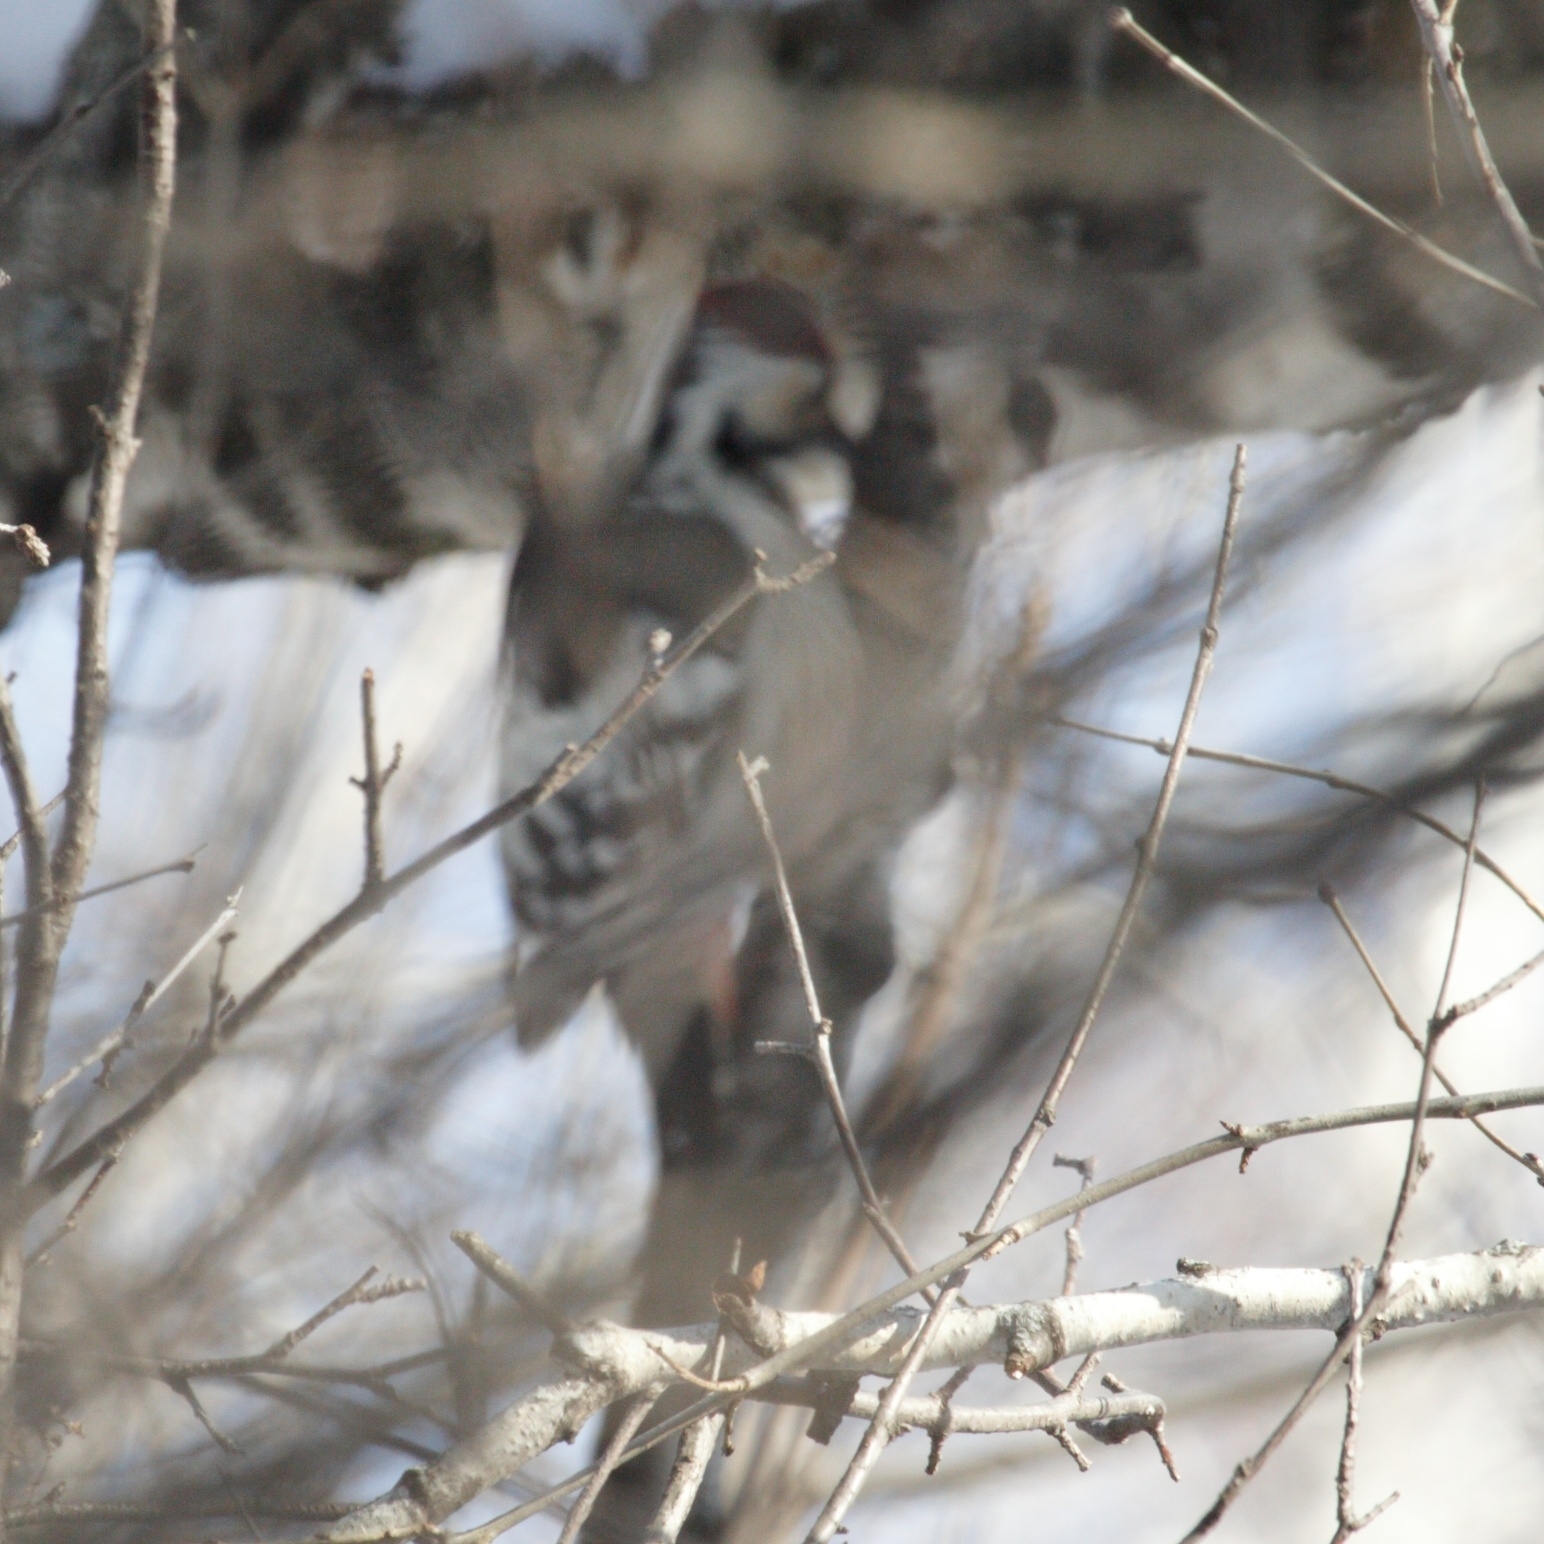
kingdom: Animalia
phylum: Chordata
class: Aves
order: Piciformes
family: Picidae
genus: Dendrocopos
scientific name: Dendrocopos leucotos
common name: White-backed woodpecker
